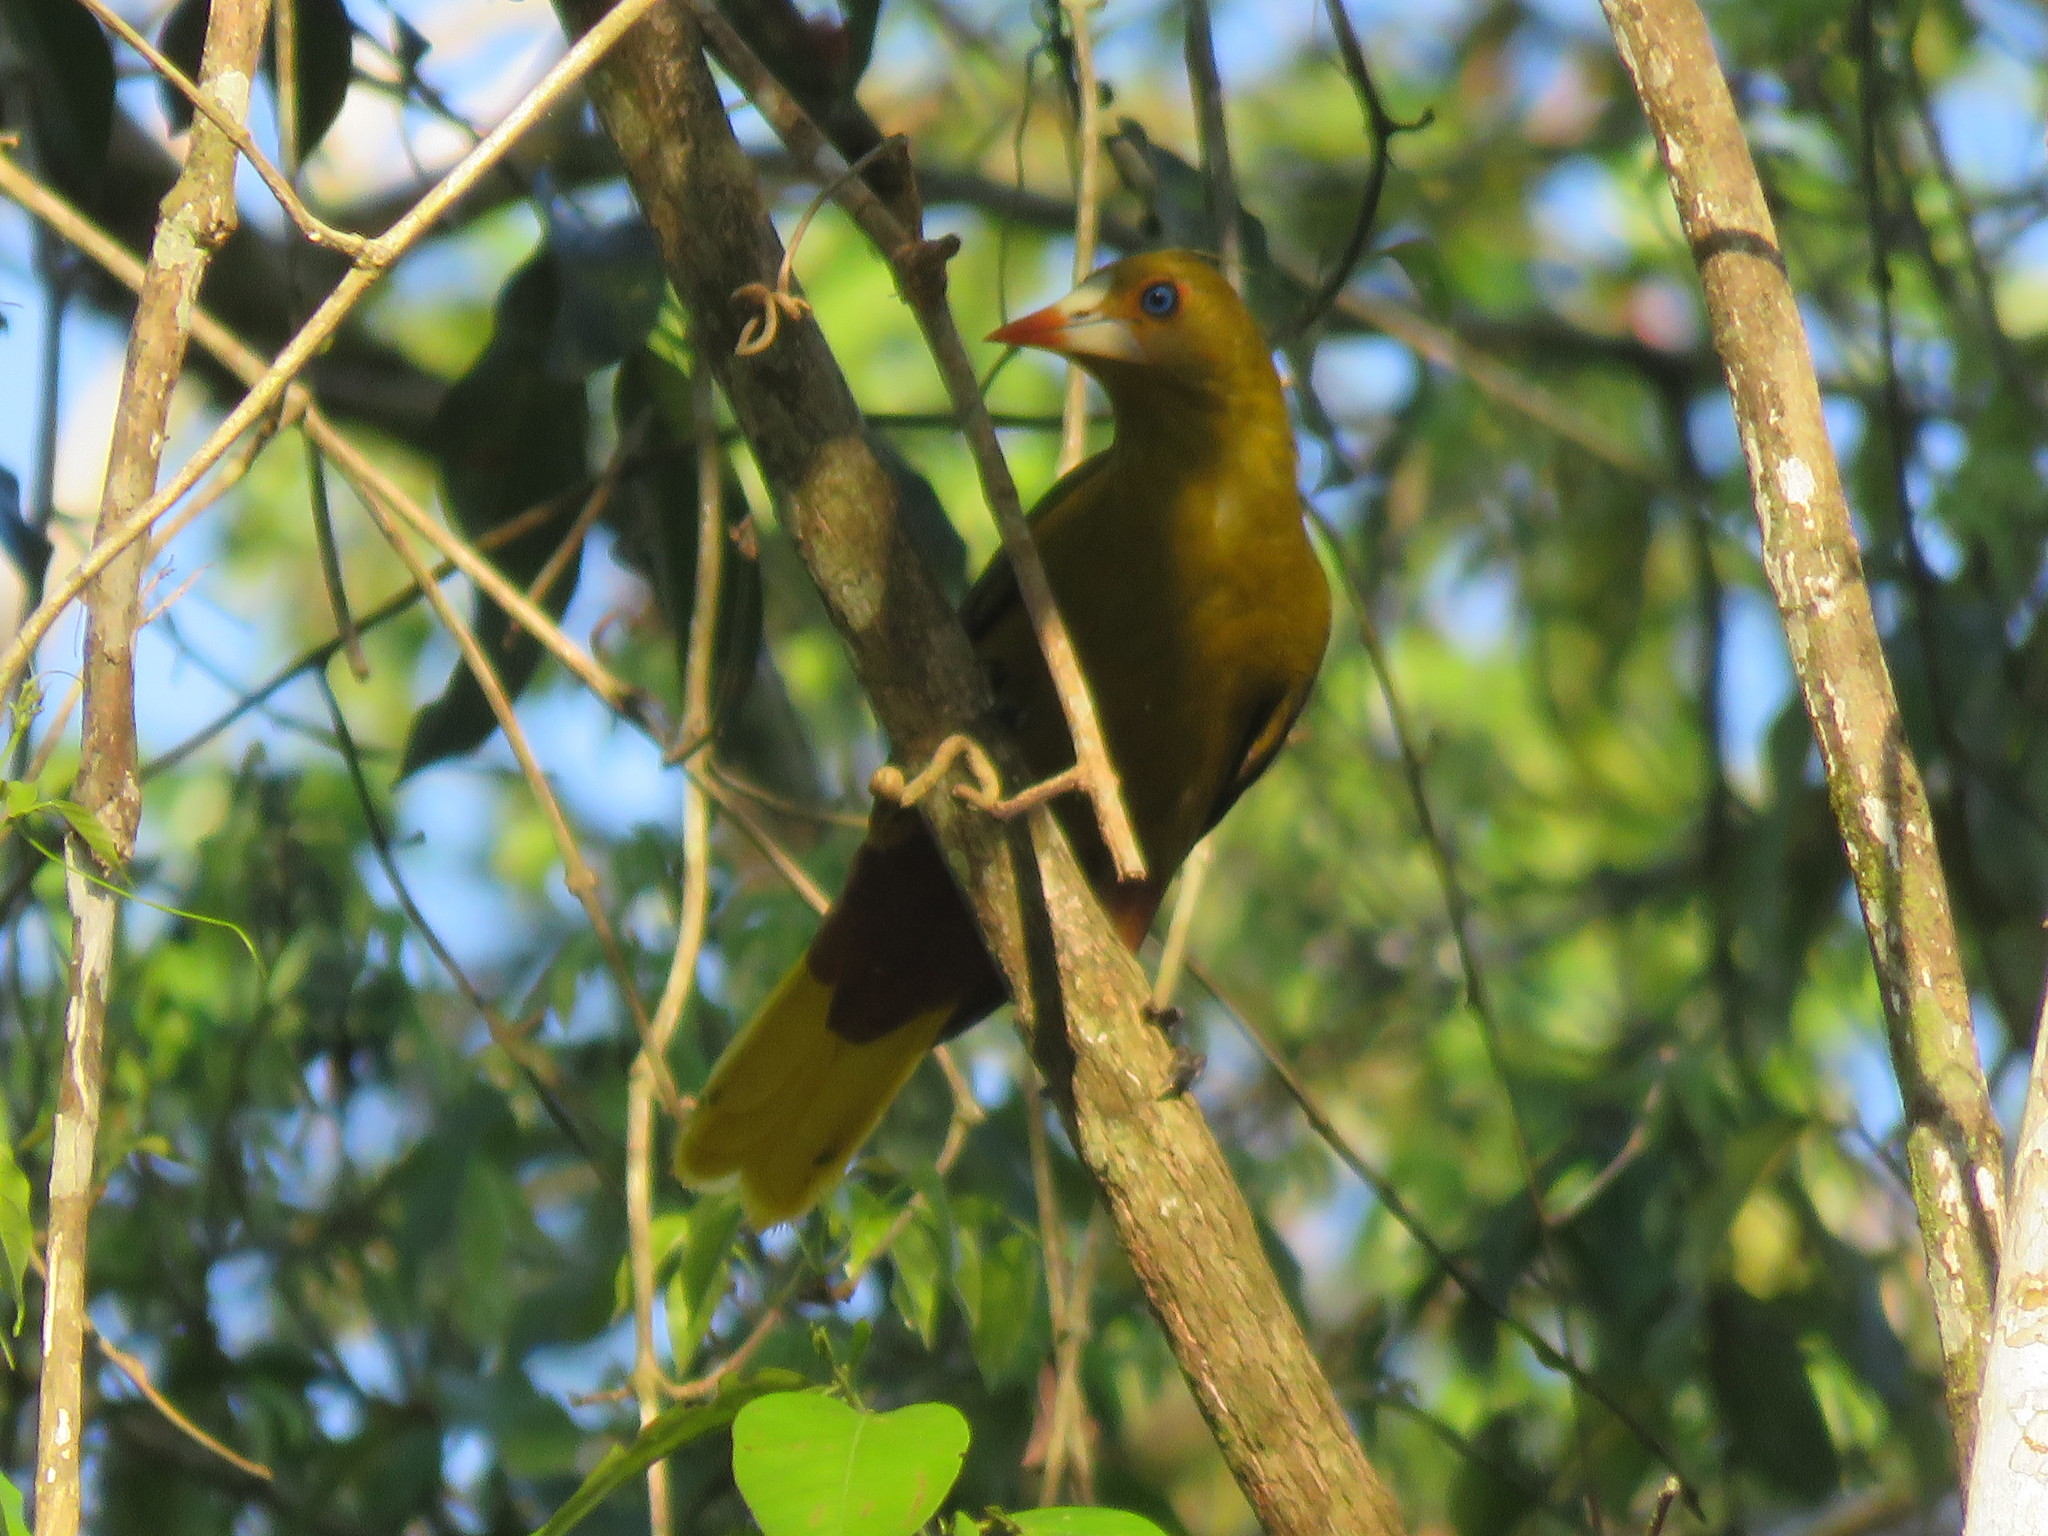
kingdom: Animalia
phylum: Chordata
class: Aves
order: Passeriformes
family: Icteridae
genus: Psarocolius
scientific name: Psarocolius viridis
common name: Green oropendola
